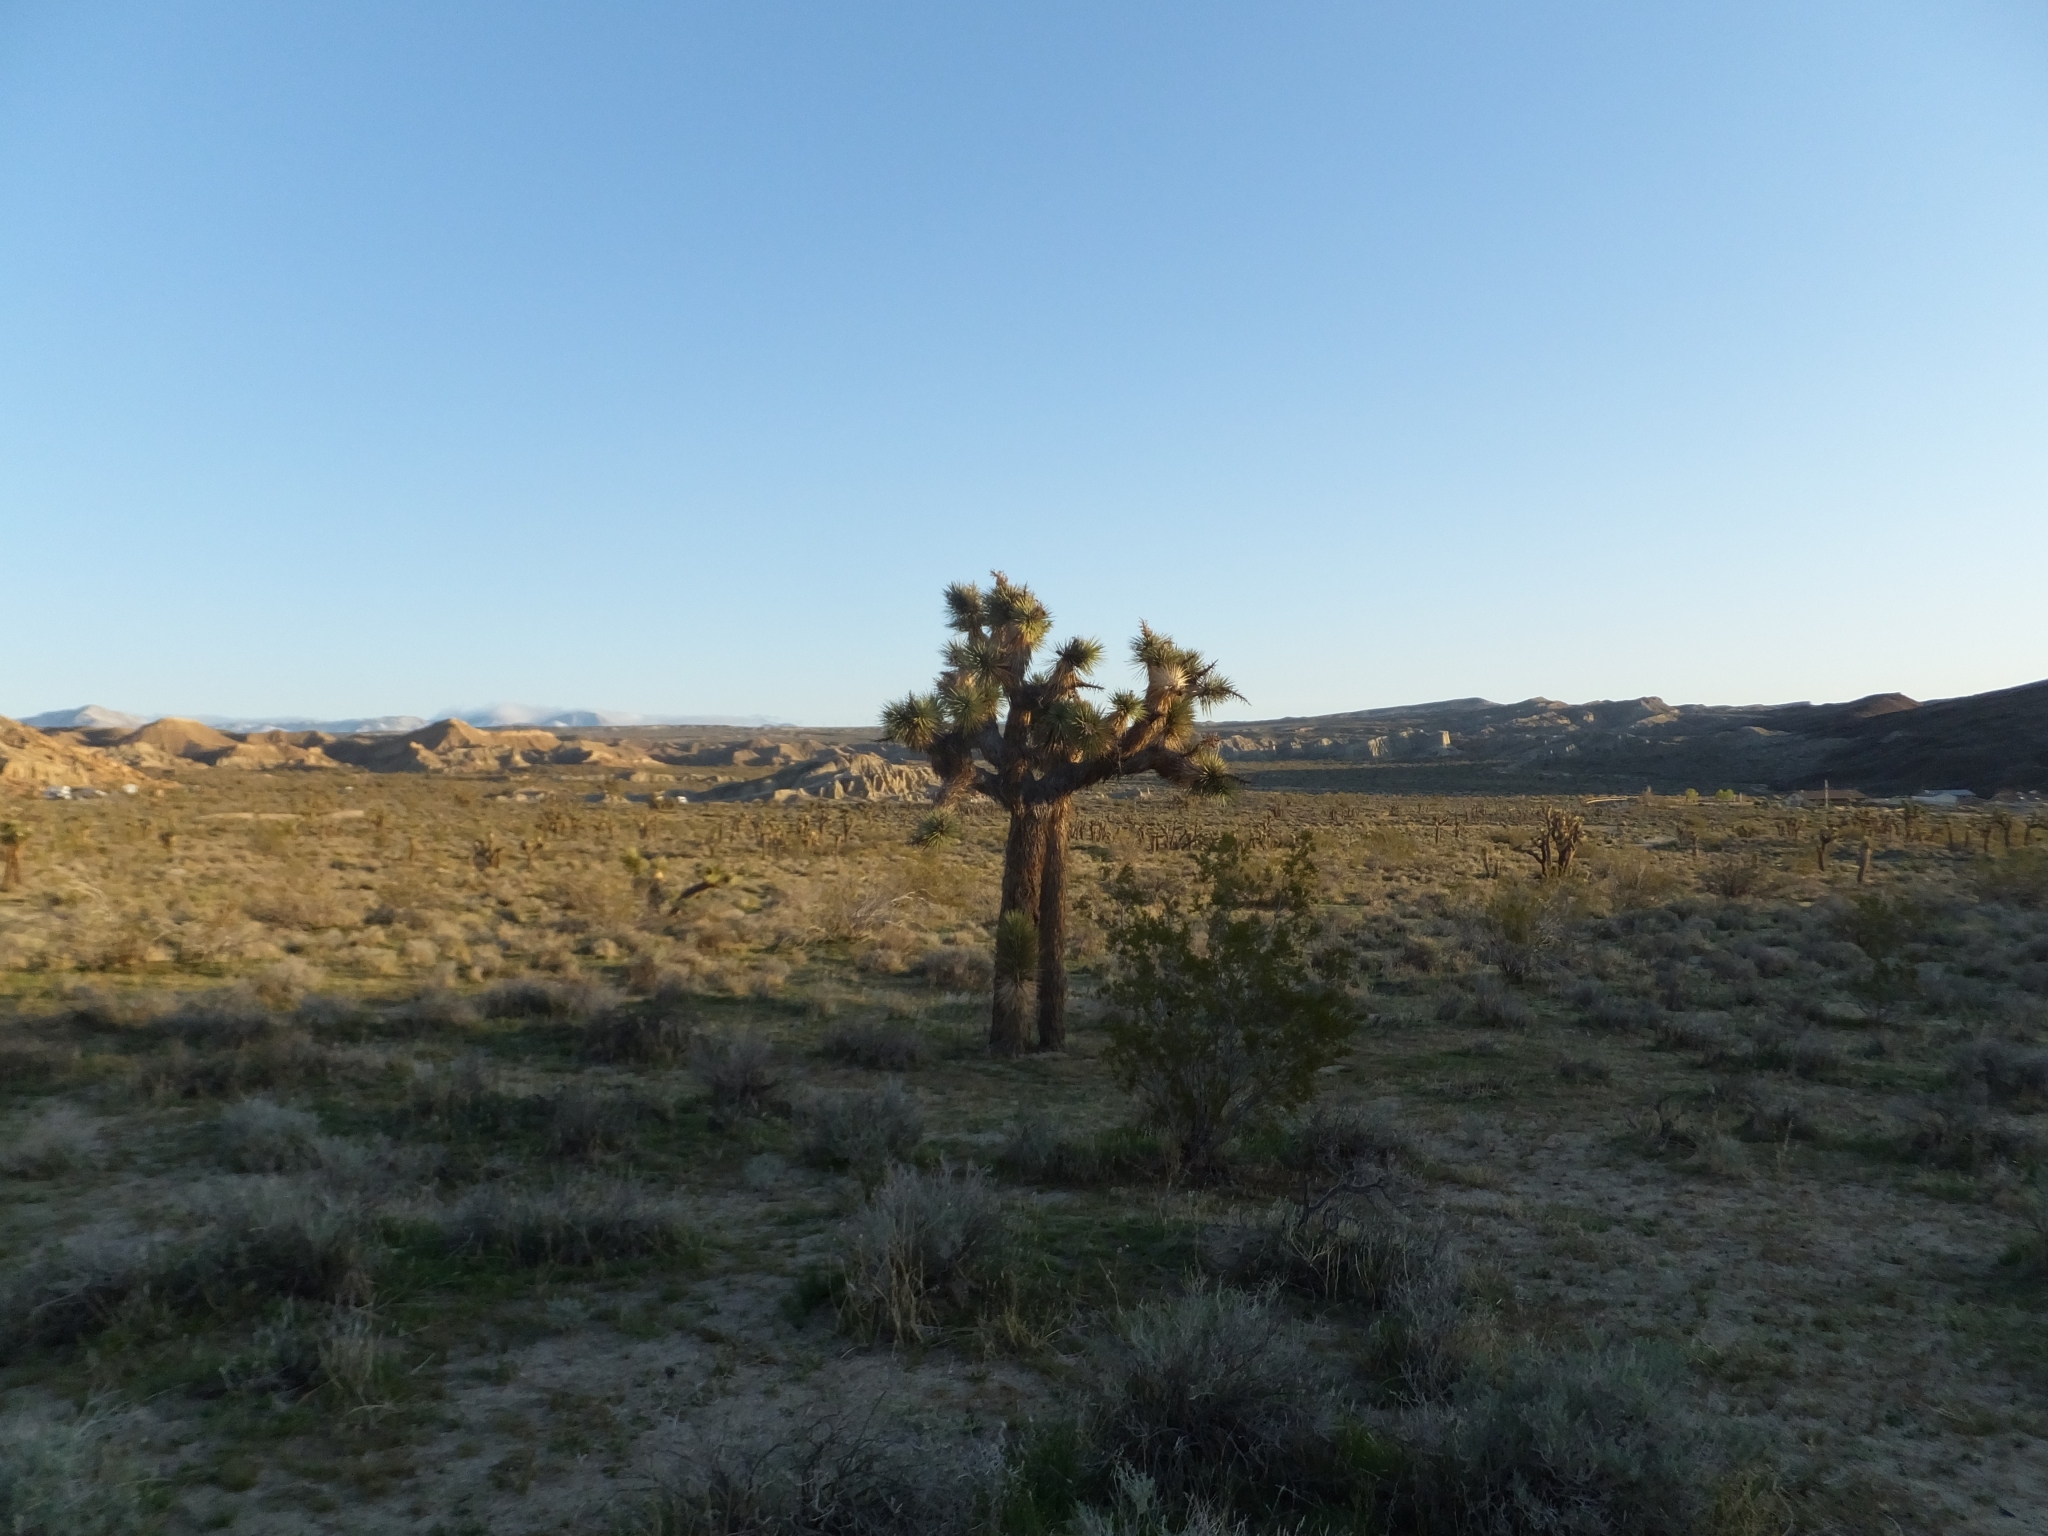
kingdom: Plantae
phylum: Tracheophyta
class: Liliopsida
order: Asparagales
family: Asparagaceae
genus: Yucca
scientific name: Yucca brevifolia
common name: Joshua tree
